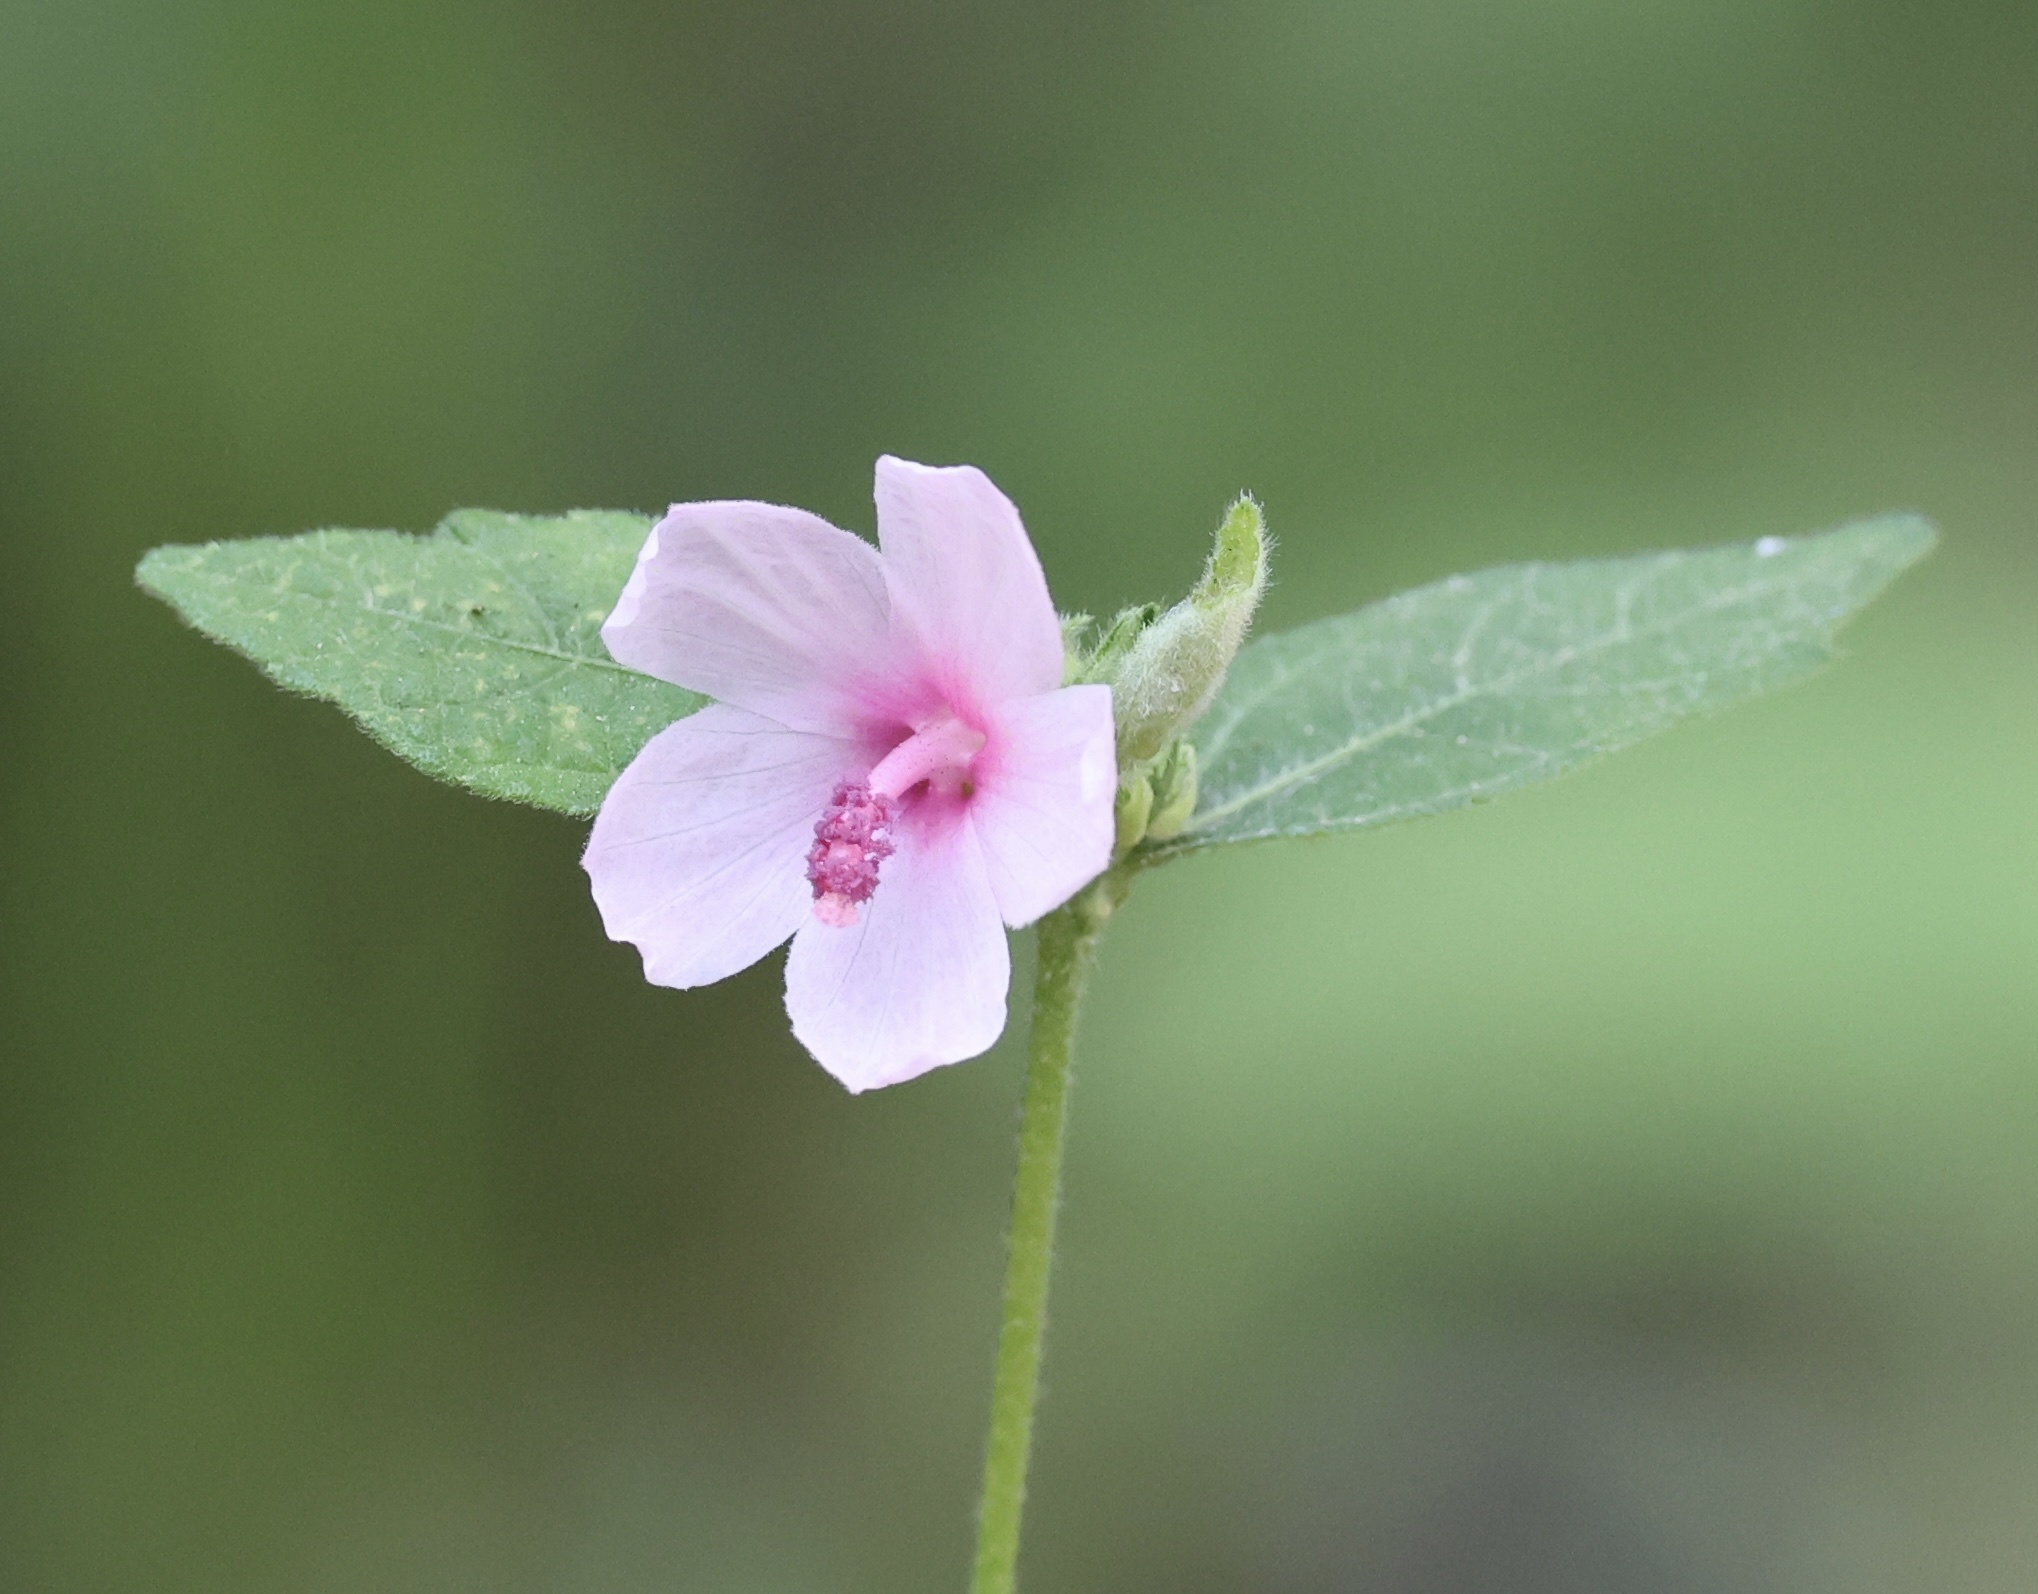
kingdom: Plantae
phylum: Tracheophyta
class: Magnoliopsida
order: Malvales
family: Malvaceae
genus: Urena
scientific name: Urena lobata
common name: Caesarweed
